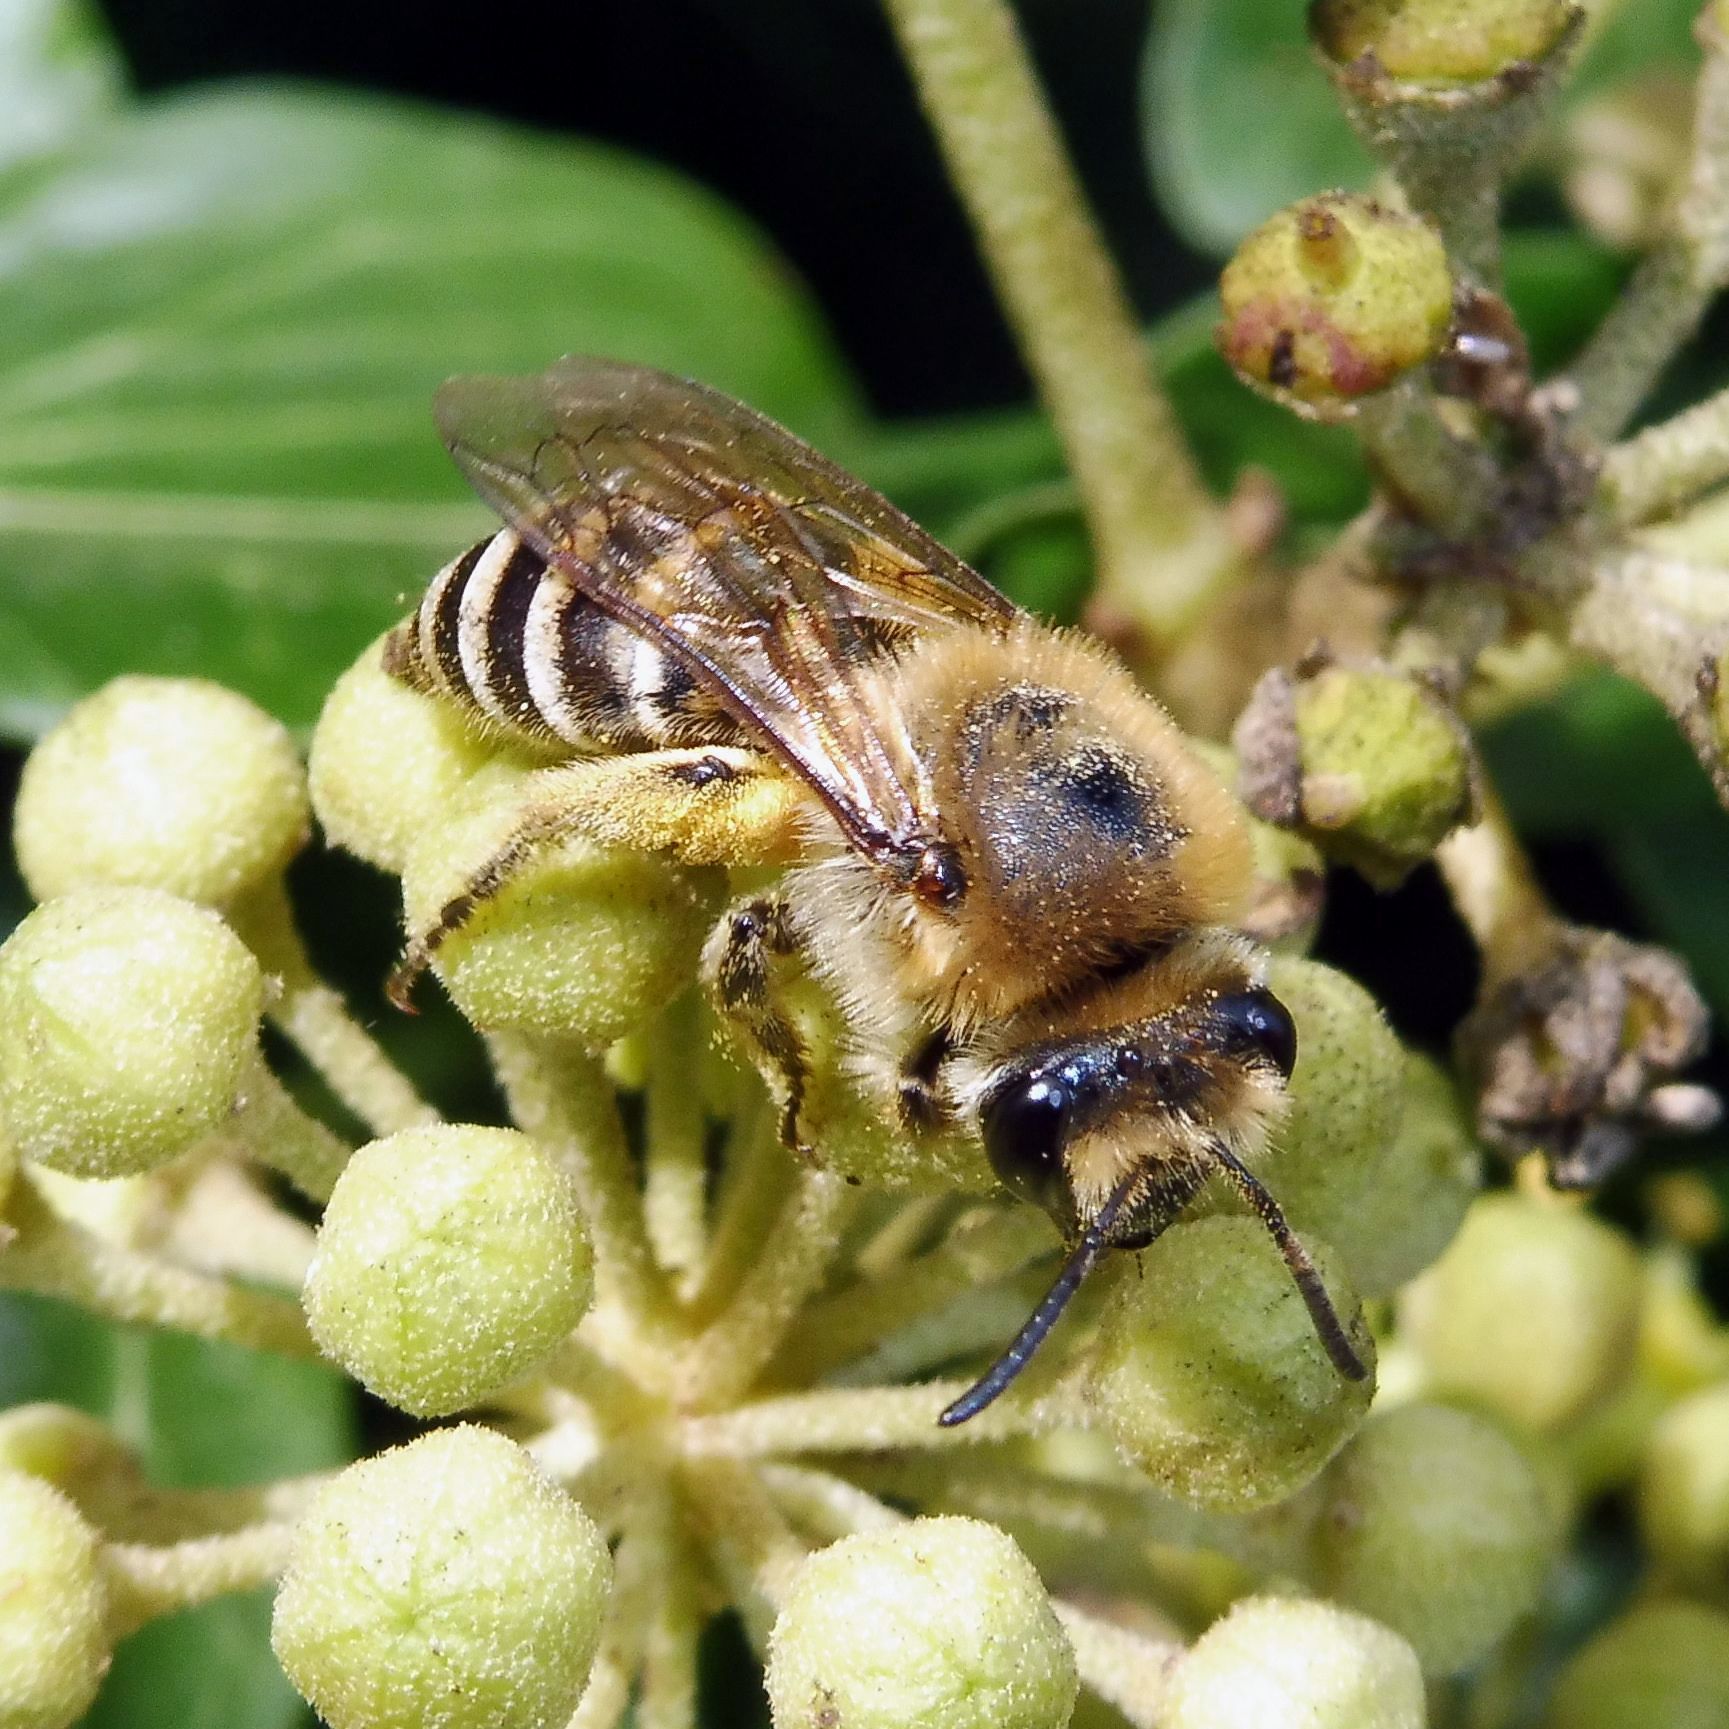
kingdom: Animalia
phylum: Arthropoda
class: Insecta
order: Hymenoptera
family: Colletidae
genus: Colletes
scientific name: Colletes hederae
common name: Ivy bee
